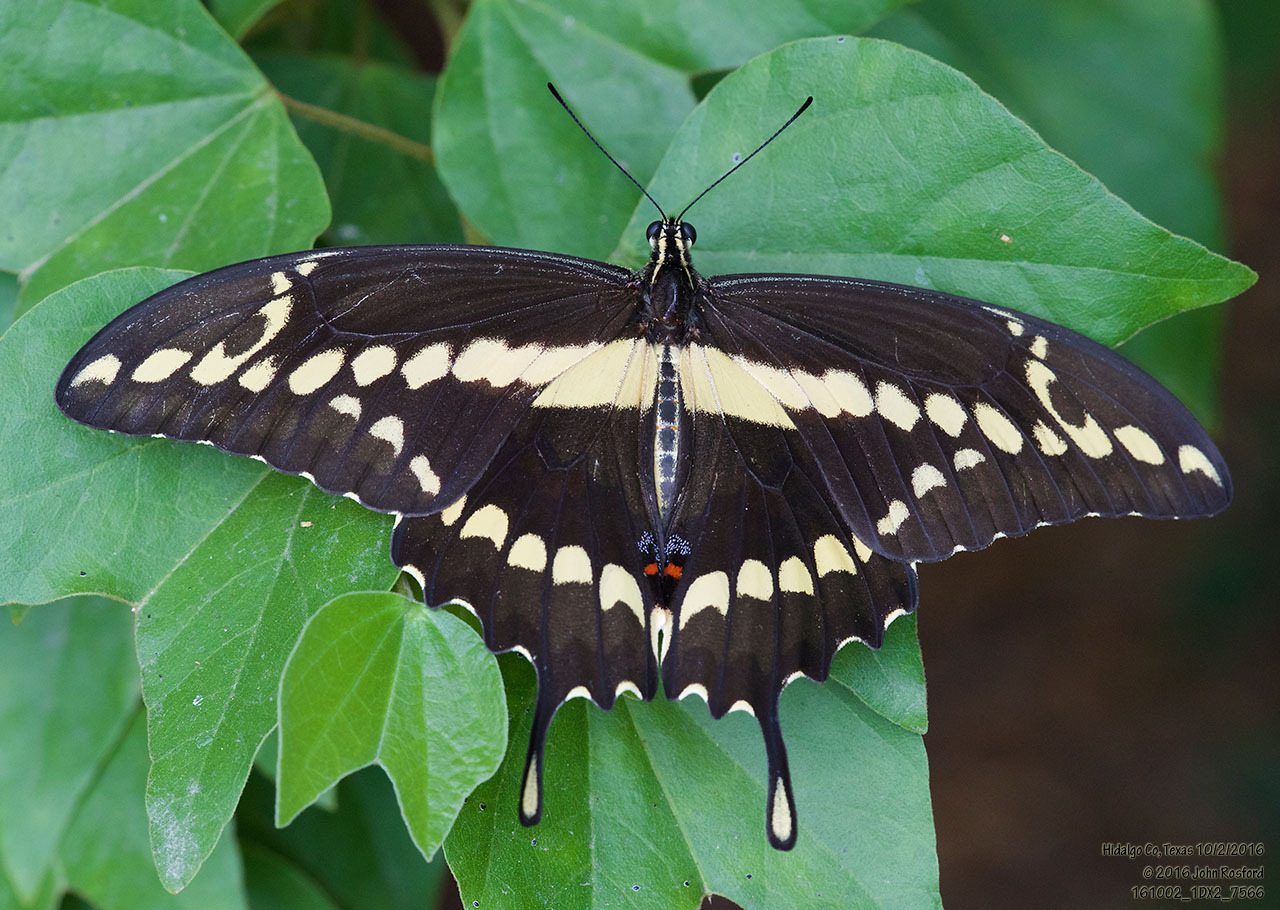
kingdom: Animalia
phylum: Arthropoda
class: Insecta
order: Lepidoptera
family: Papilionidae
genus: Papilio
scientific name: Papilio rumiko
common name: Western giant swallowtail
